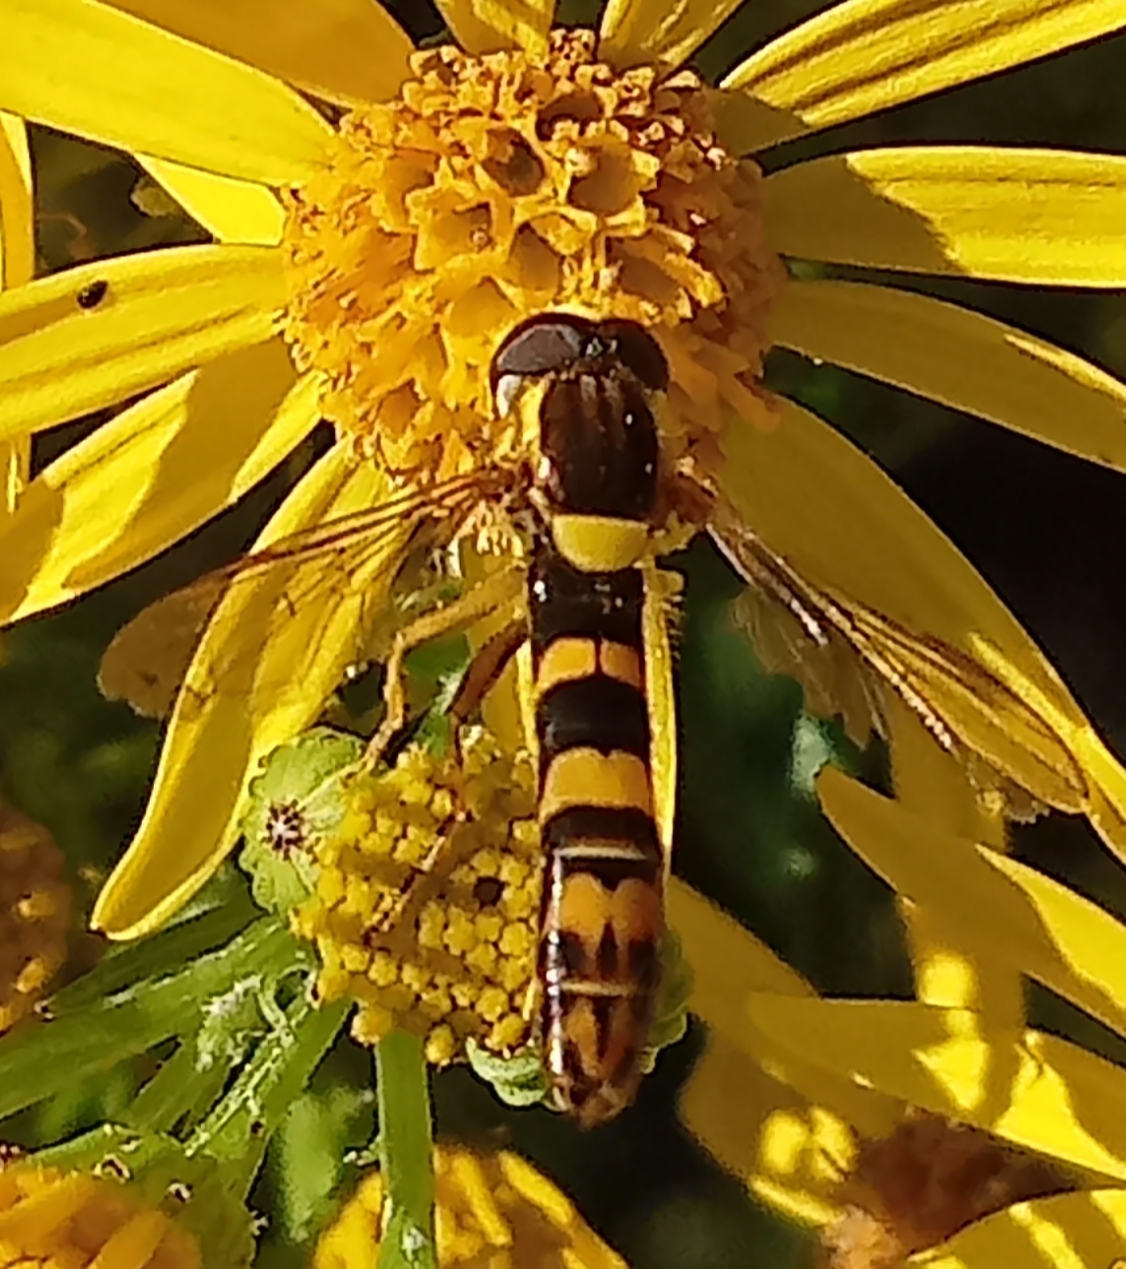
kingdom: Animalia
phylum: Arthropoda
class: Insecta
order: Diptera
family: Syrphidae
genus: Sphaerophoria
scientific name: Sphaerophoria scripta
